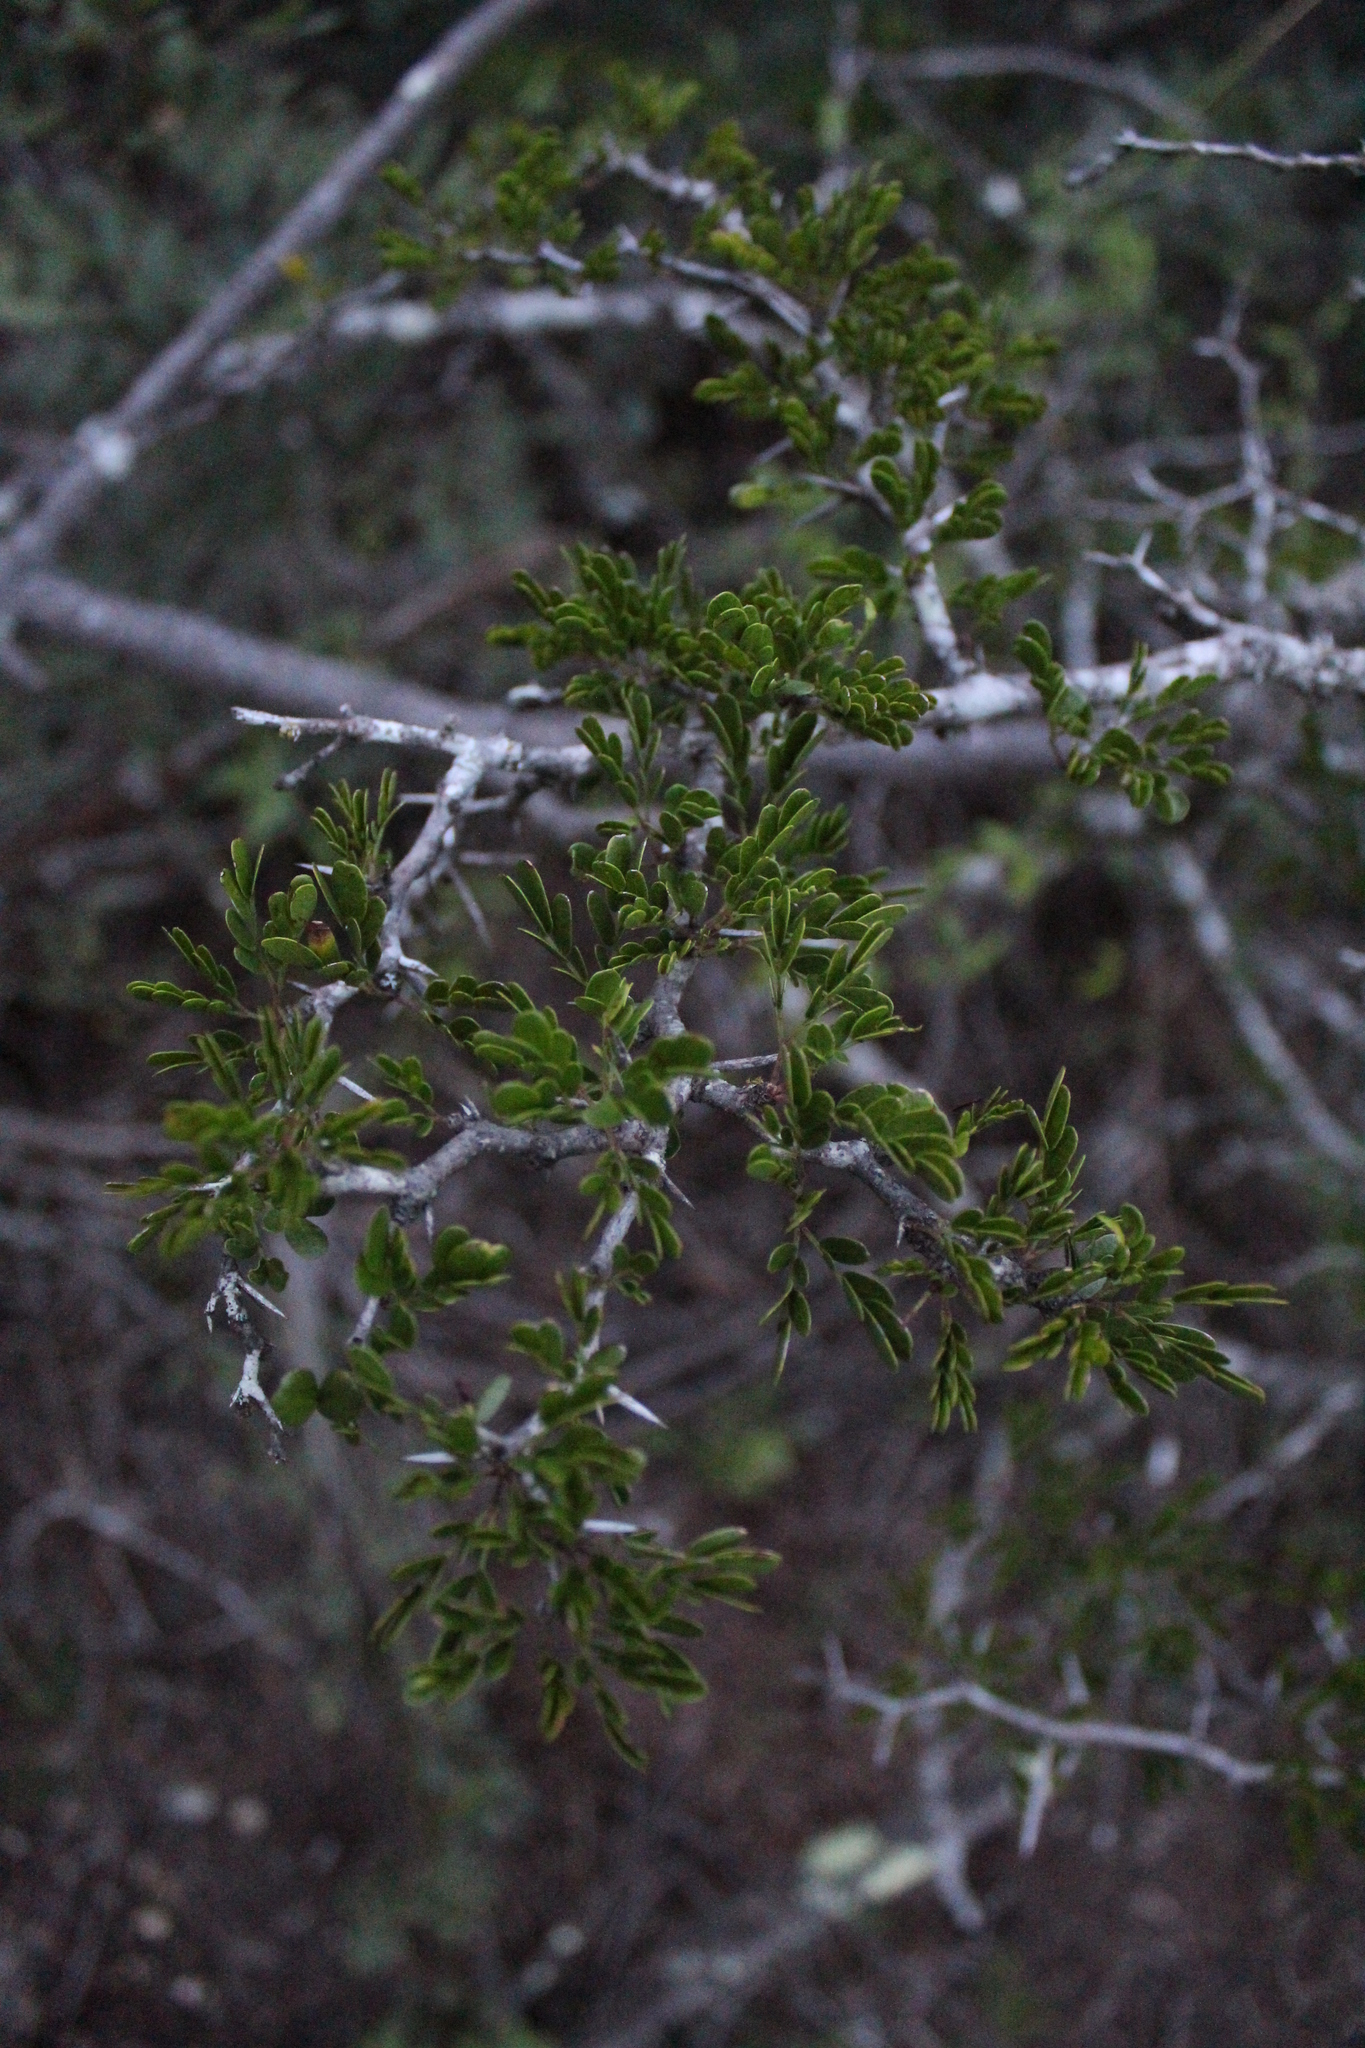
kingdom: Plantae
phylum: Tracheophyta
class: Magnoliopsida
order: Fabales
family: Fabaceae
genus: Vachellia
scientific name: Vachellia rigidula
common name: Blackbrush
